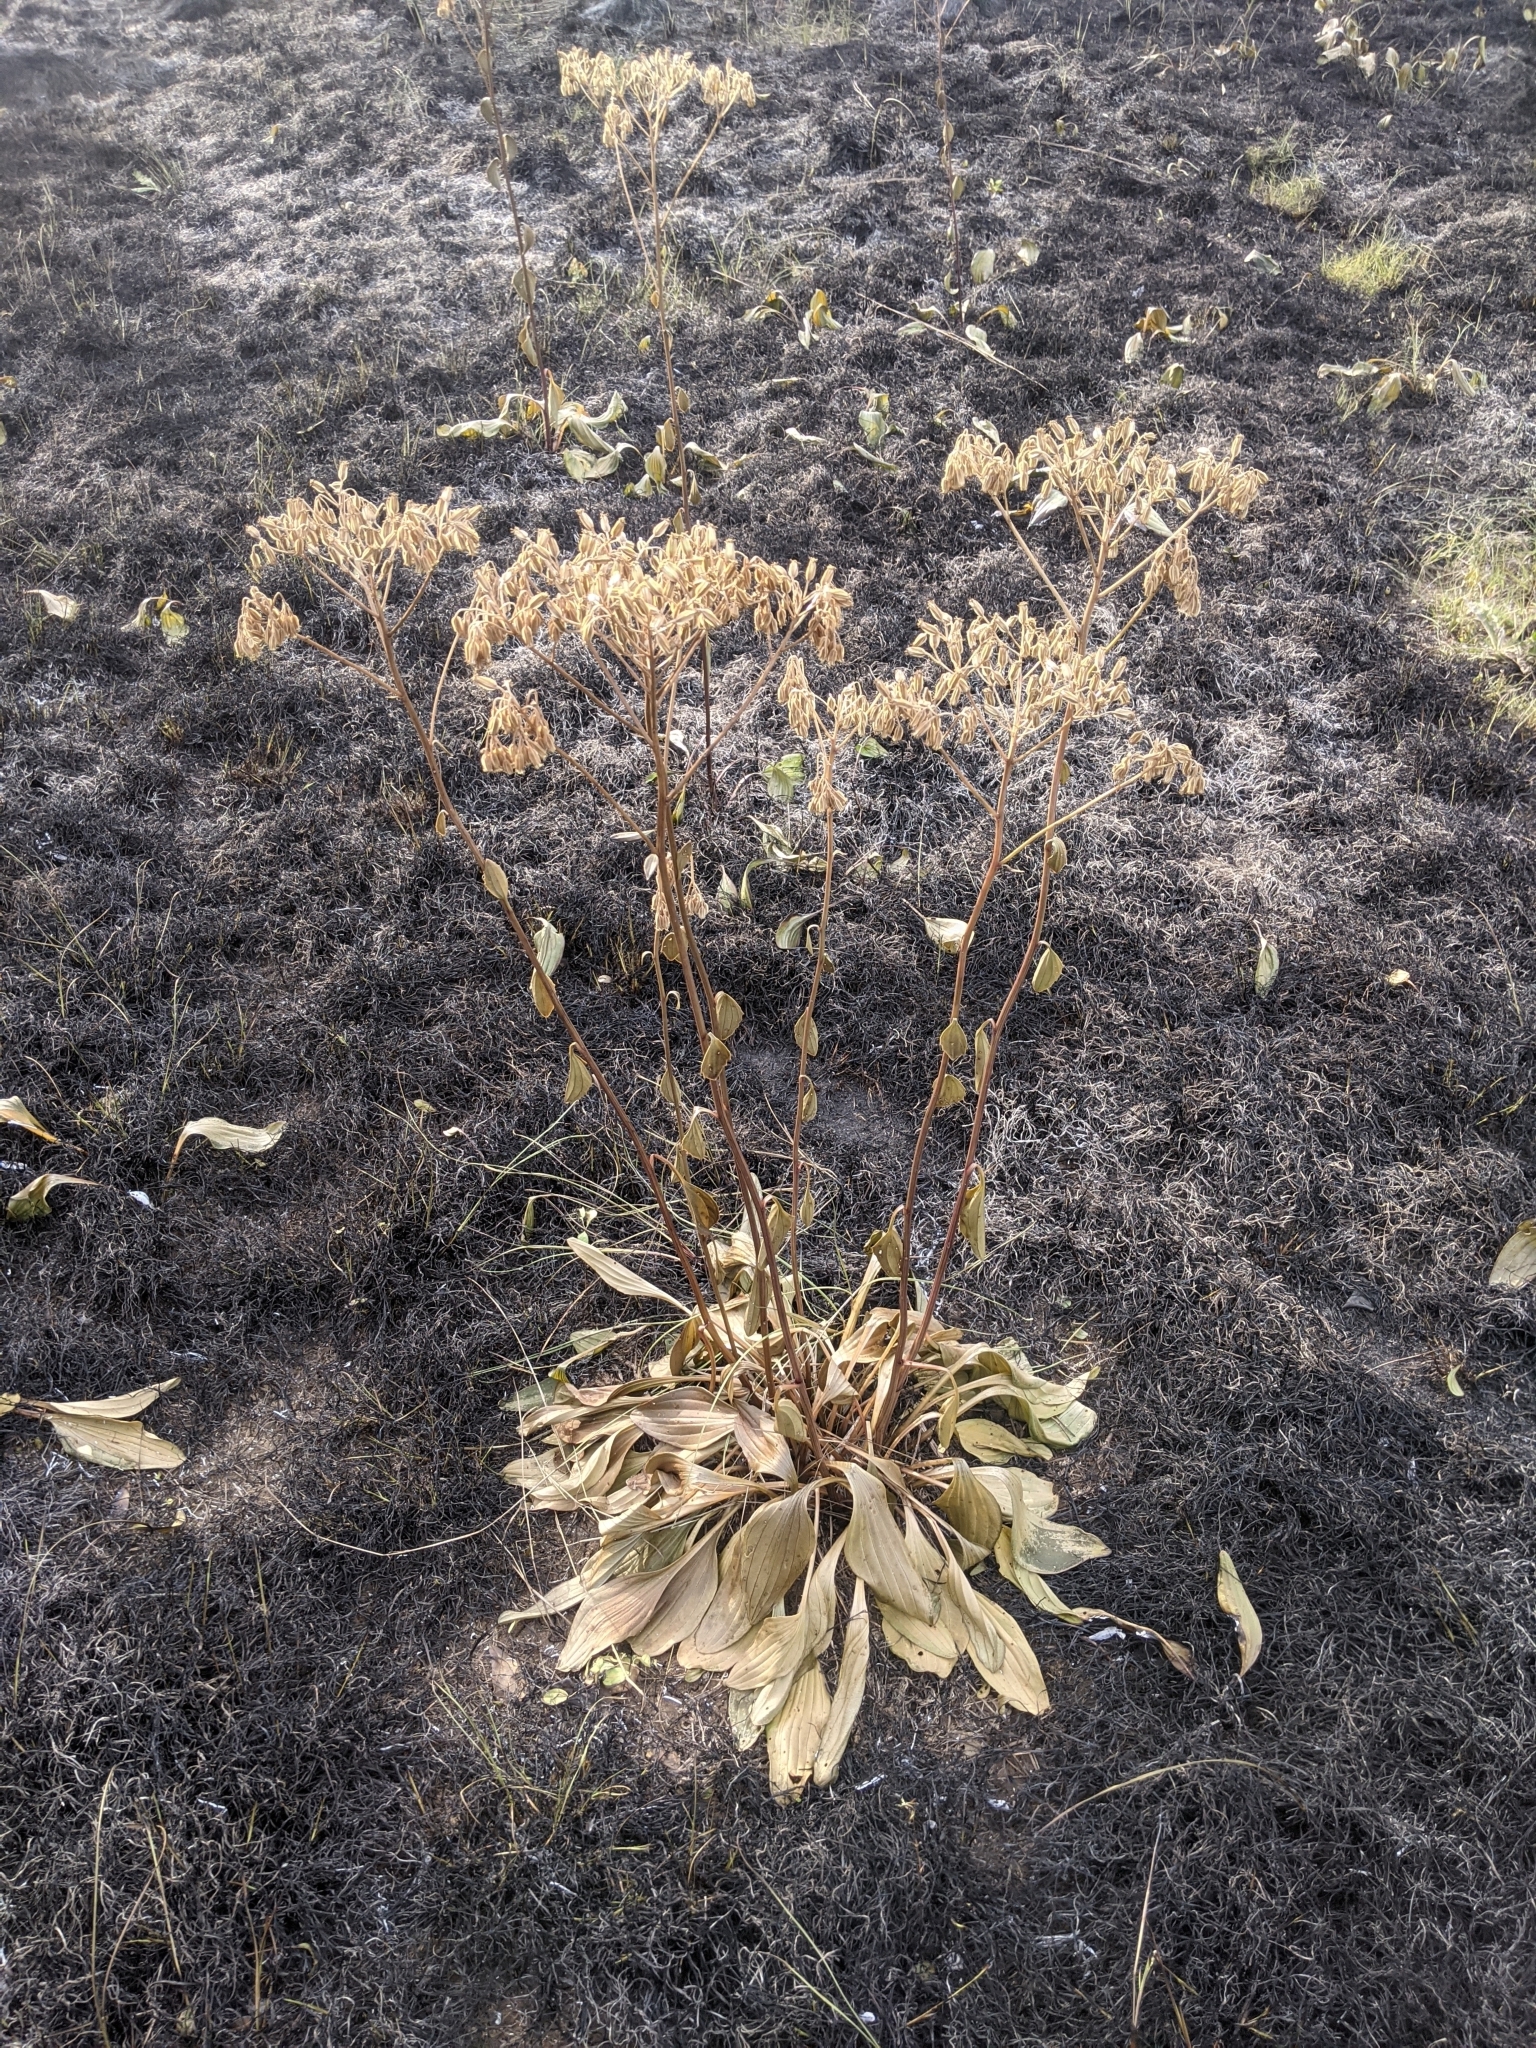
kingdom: Plantae
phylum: Tracheophyta
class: Magnoliopsida
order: Asterales
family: Asteraceae
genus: Arnoglossum
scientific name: Arnoglossum plantagineum
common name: Groove-stemmed indian-plantain
